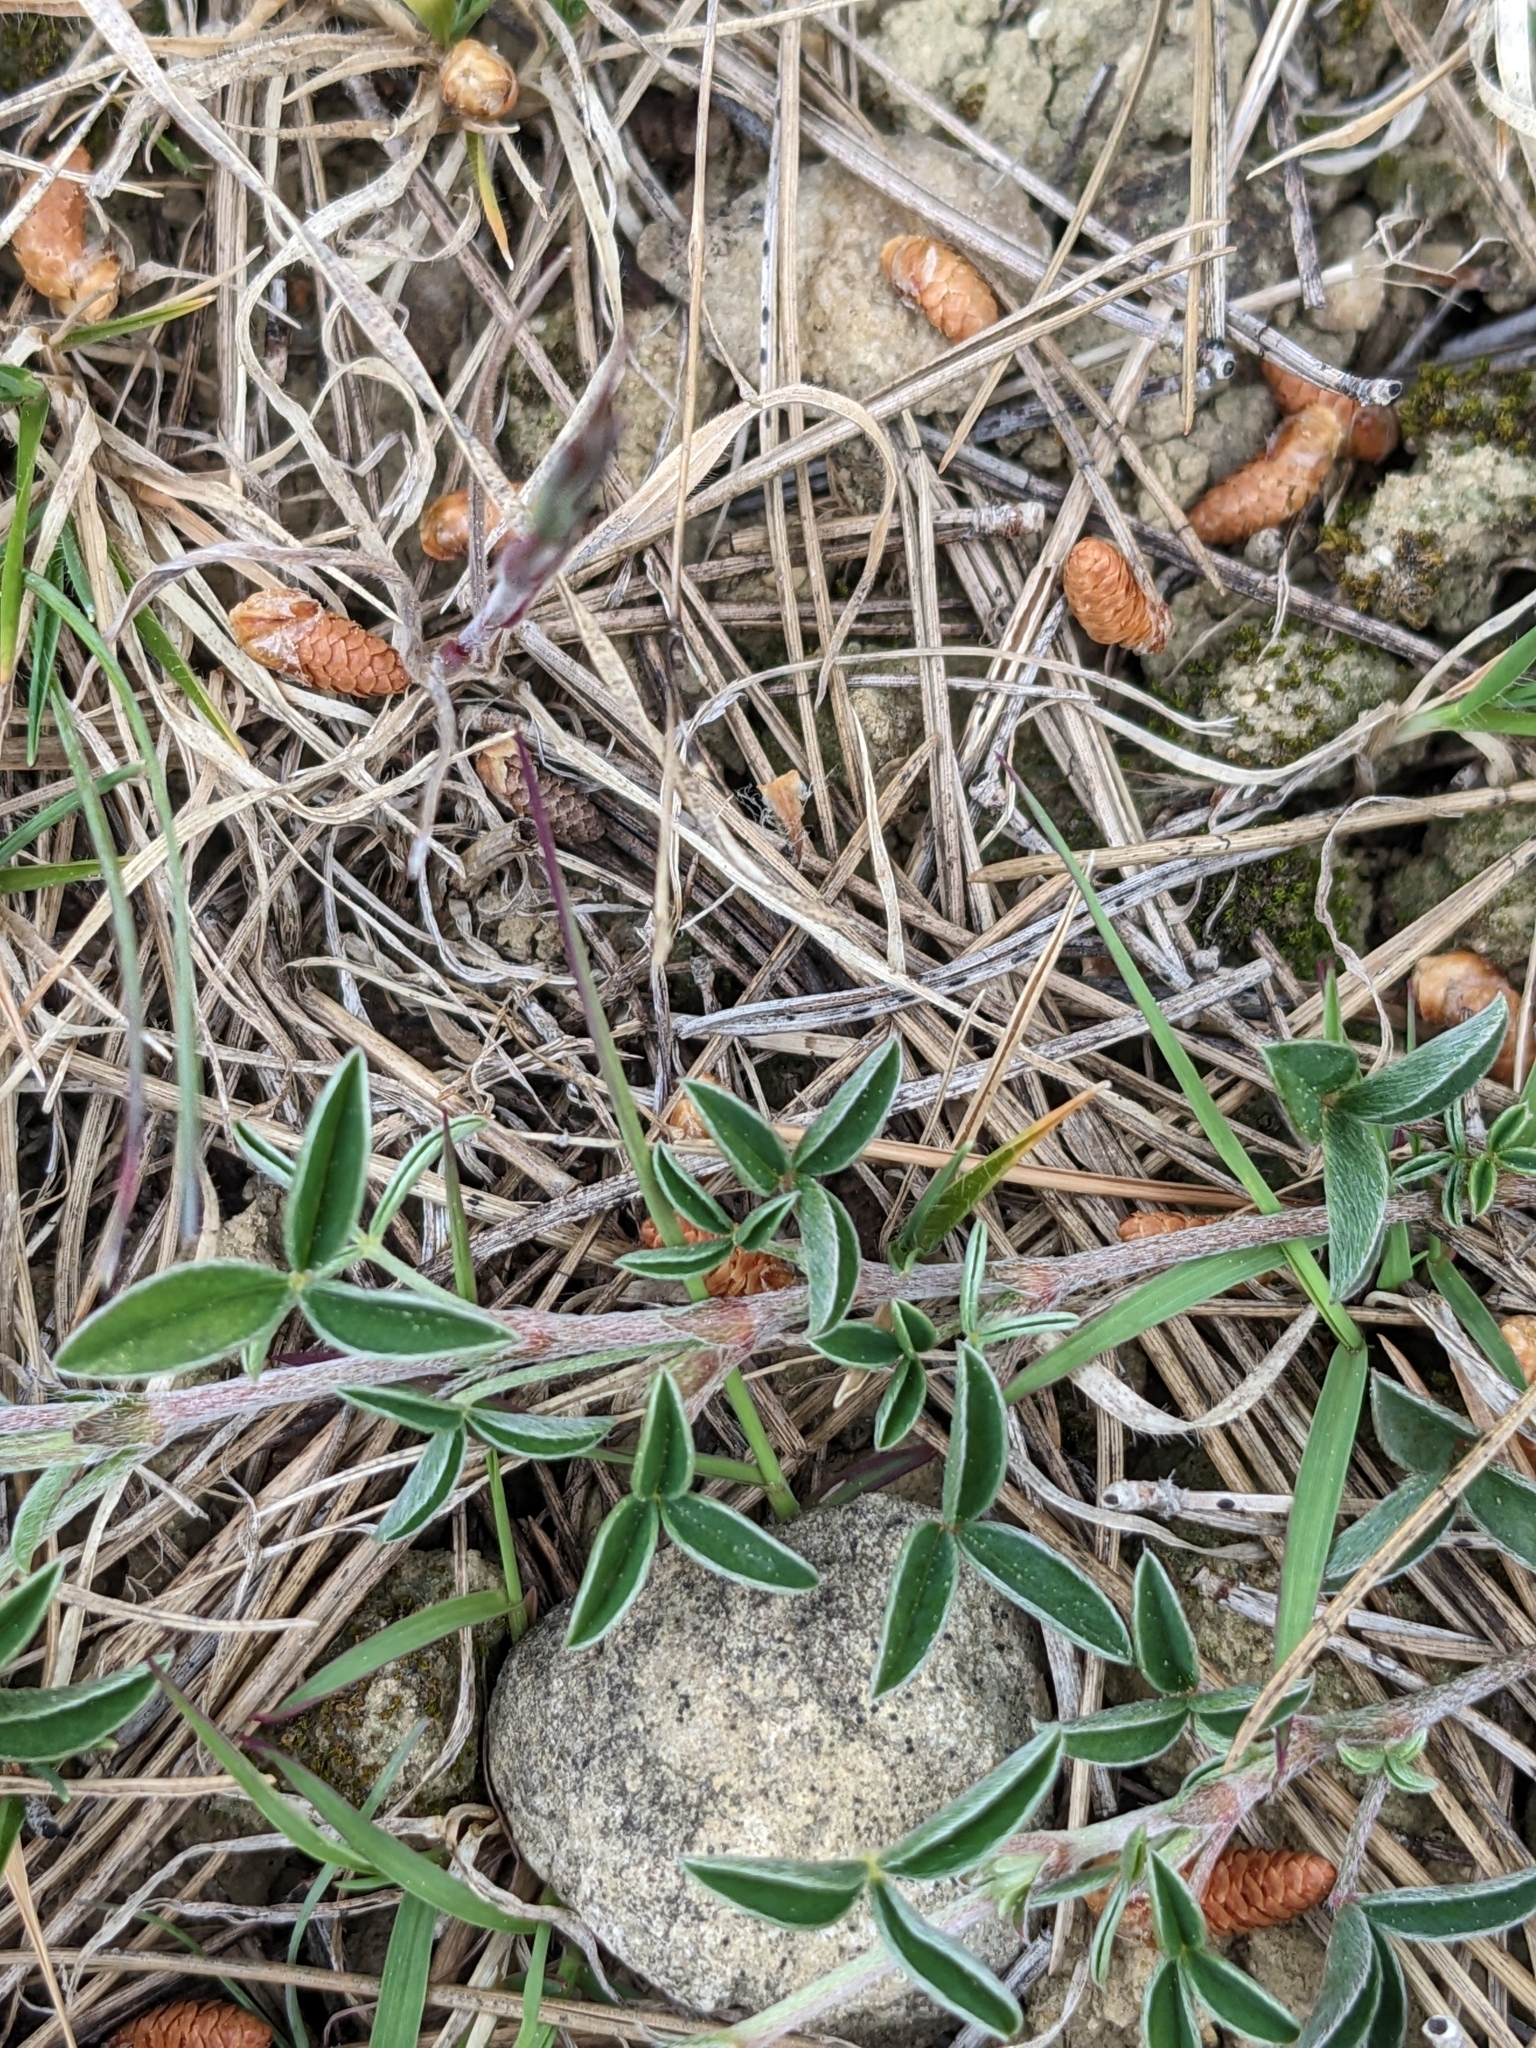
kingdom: Plantae
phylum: Tracheophyta
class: Magnoliopsida
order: Fabales
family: Fabaceae
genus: Argyrolobium
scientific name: Argyrolobium zanonii
